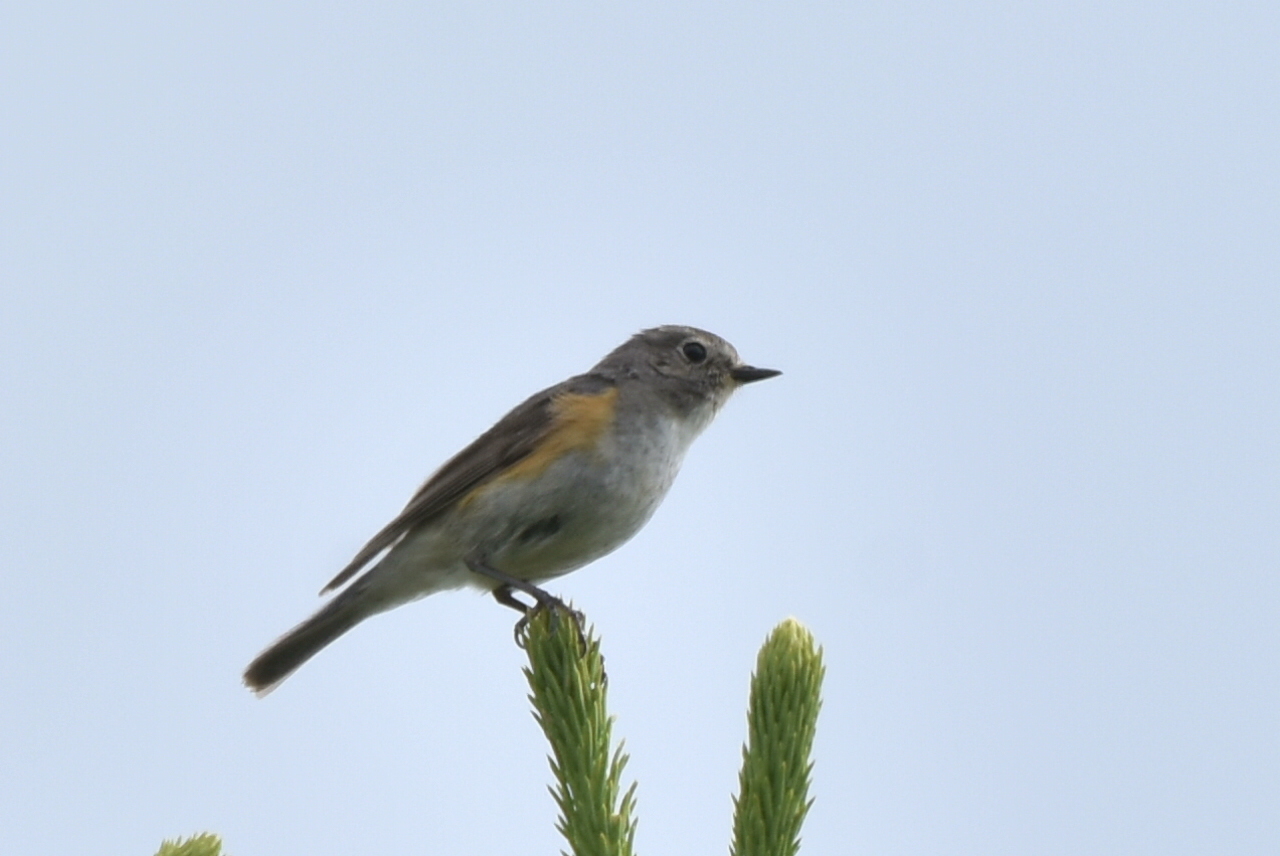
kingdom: Animalia
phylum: Chordata
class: Aves
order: Passeriformes
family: Muscicapidae
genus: Tarsiger
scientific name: Tarsiger cyanurus
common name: Red-flanked bluetail
